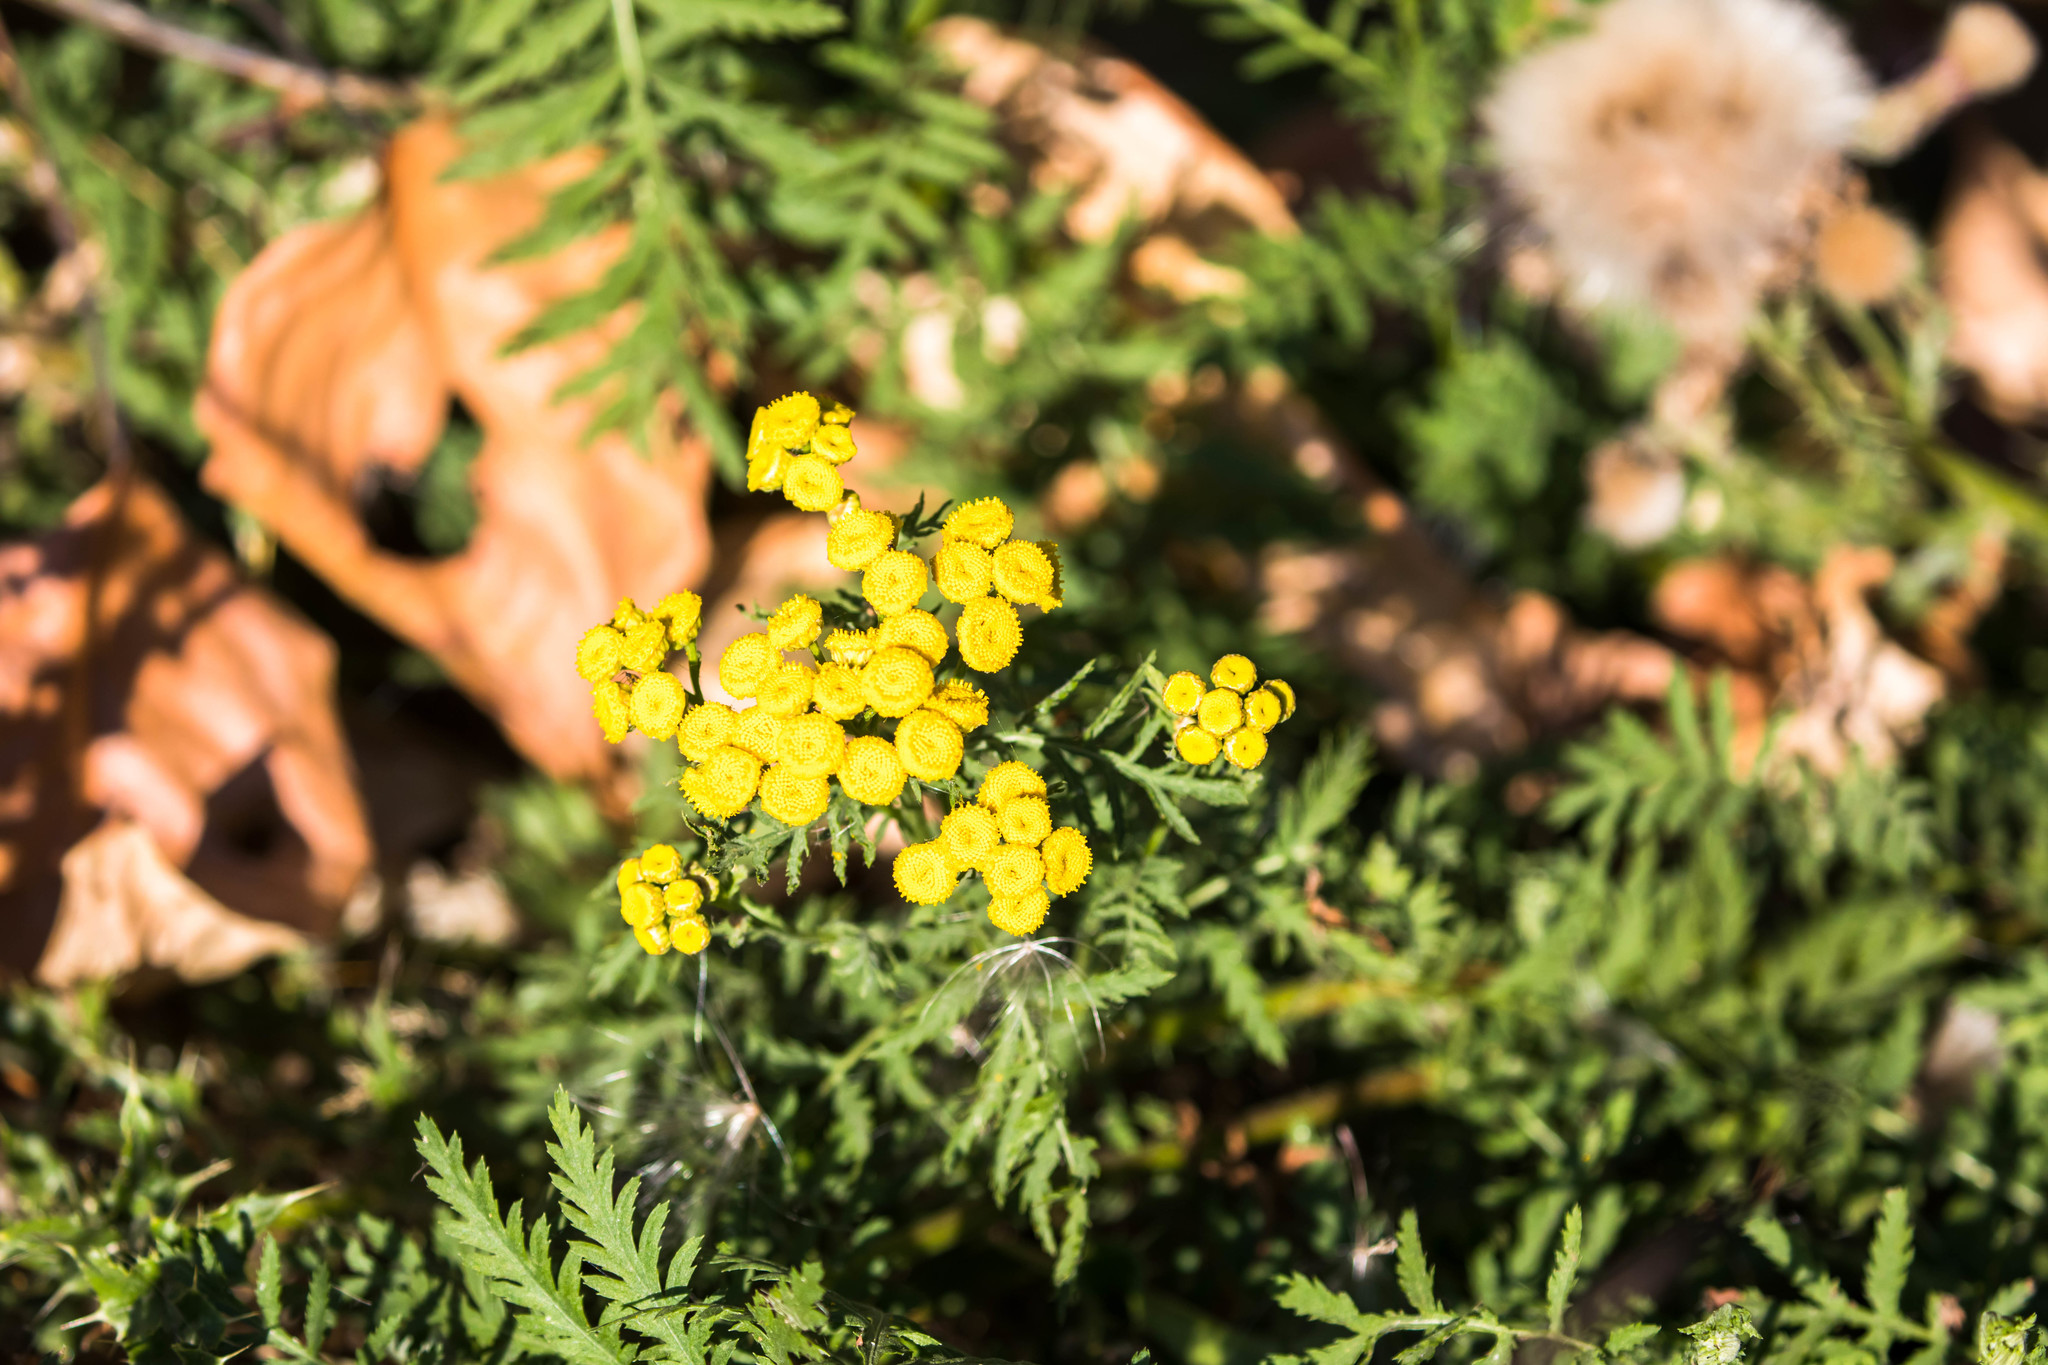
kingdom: Plantae
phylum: Tracheophyta
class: Magnoliopsida
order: Asterales
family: Asteraceae
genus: Tanacetum
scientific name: Tanacetum vulgare
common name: Common tansy
